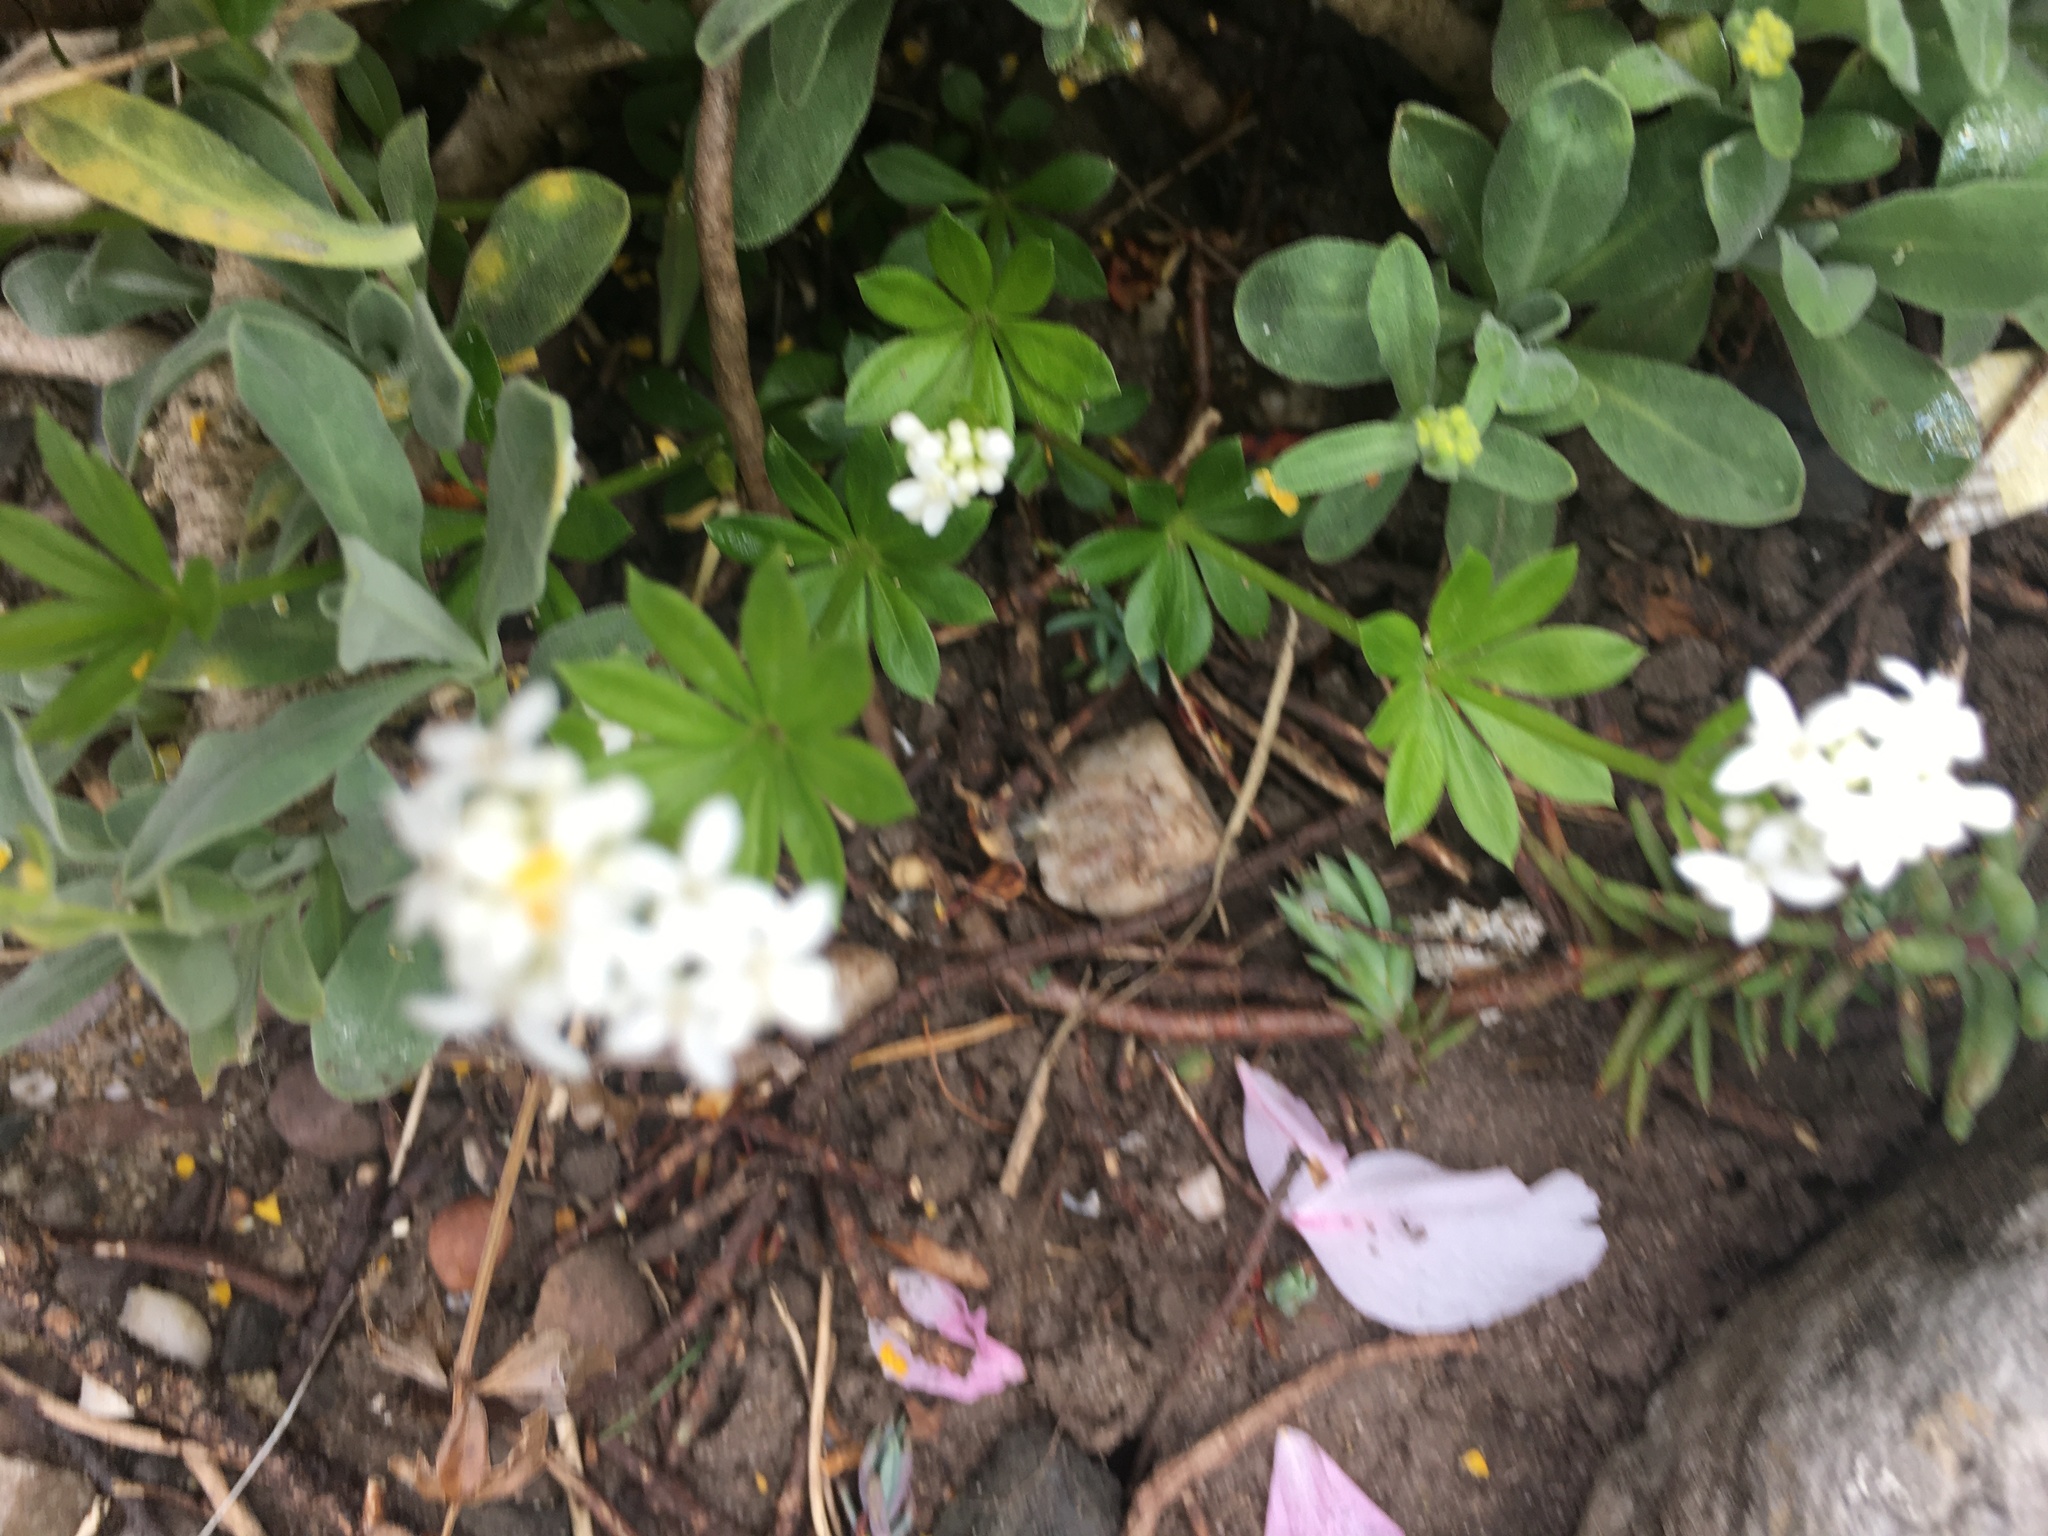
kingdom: Plantae
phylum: Tracheophyta
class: Magnoliopsida
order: Gentianales
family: Rubiaceae
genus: Galium
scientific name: Galium odoratum
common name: Sweet woodruff
